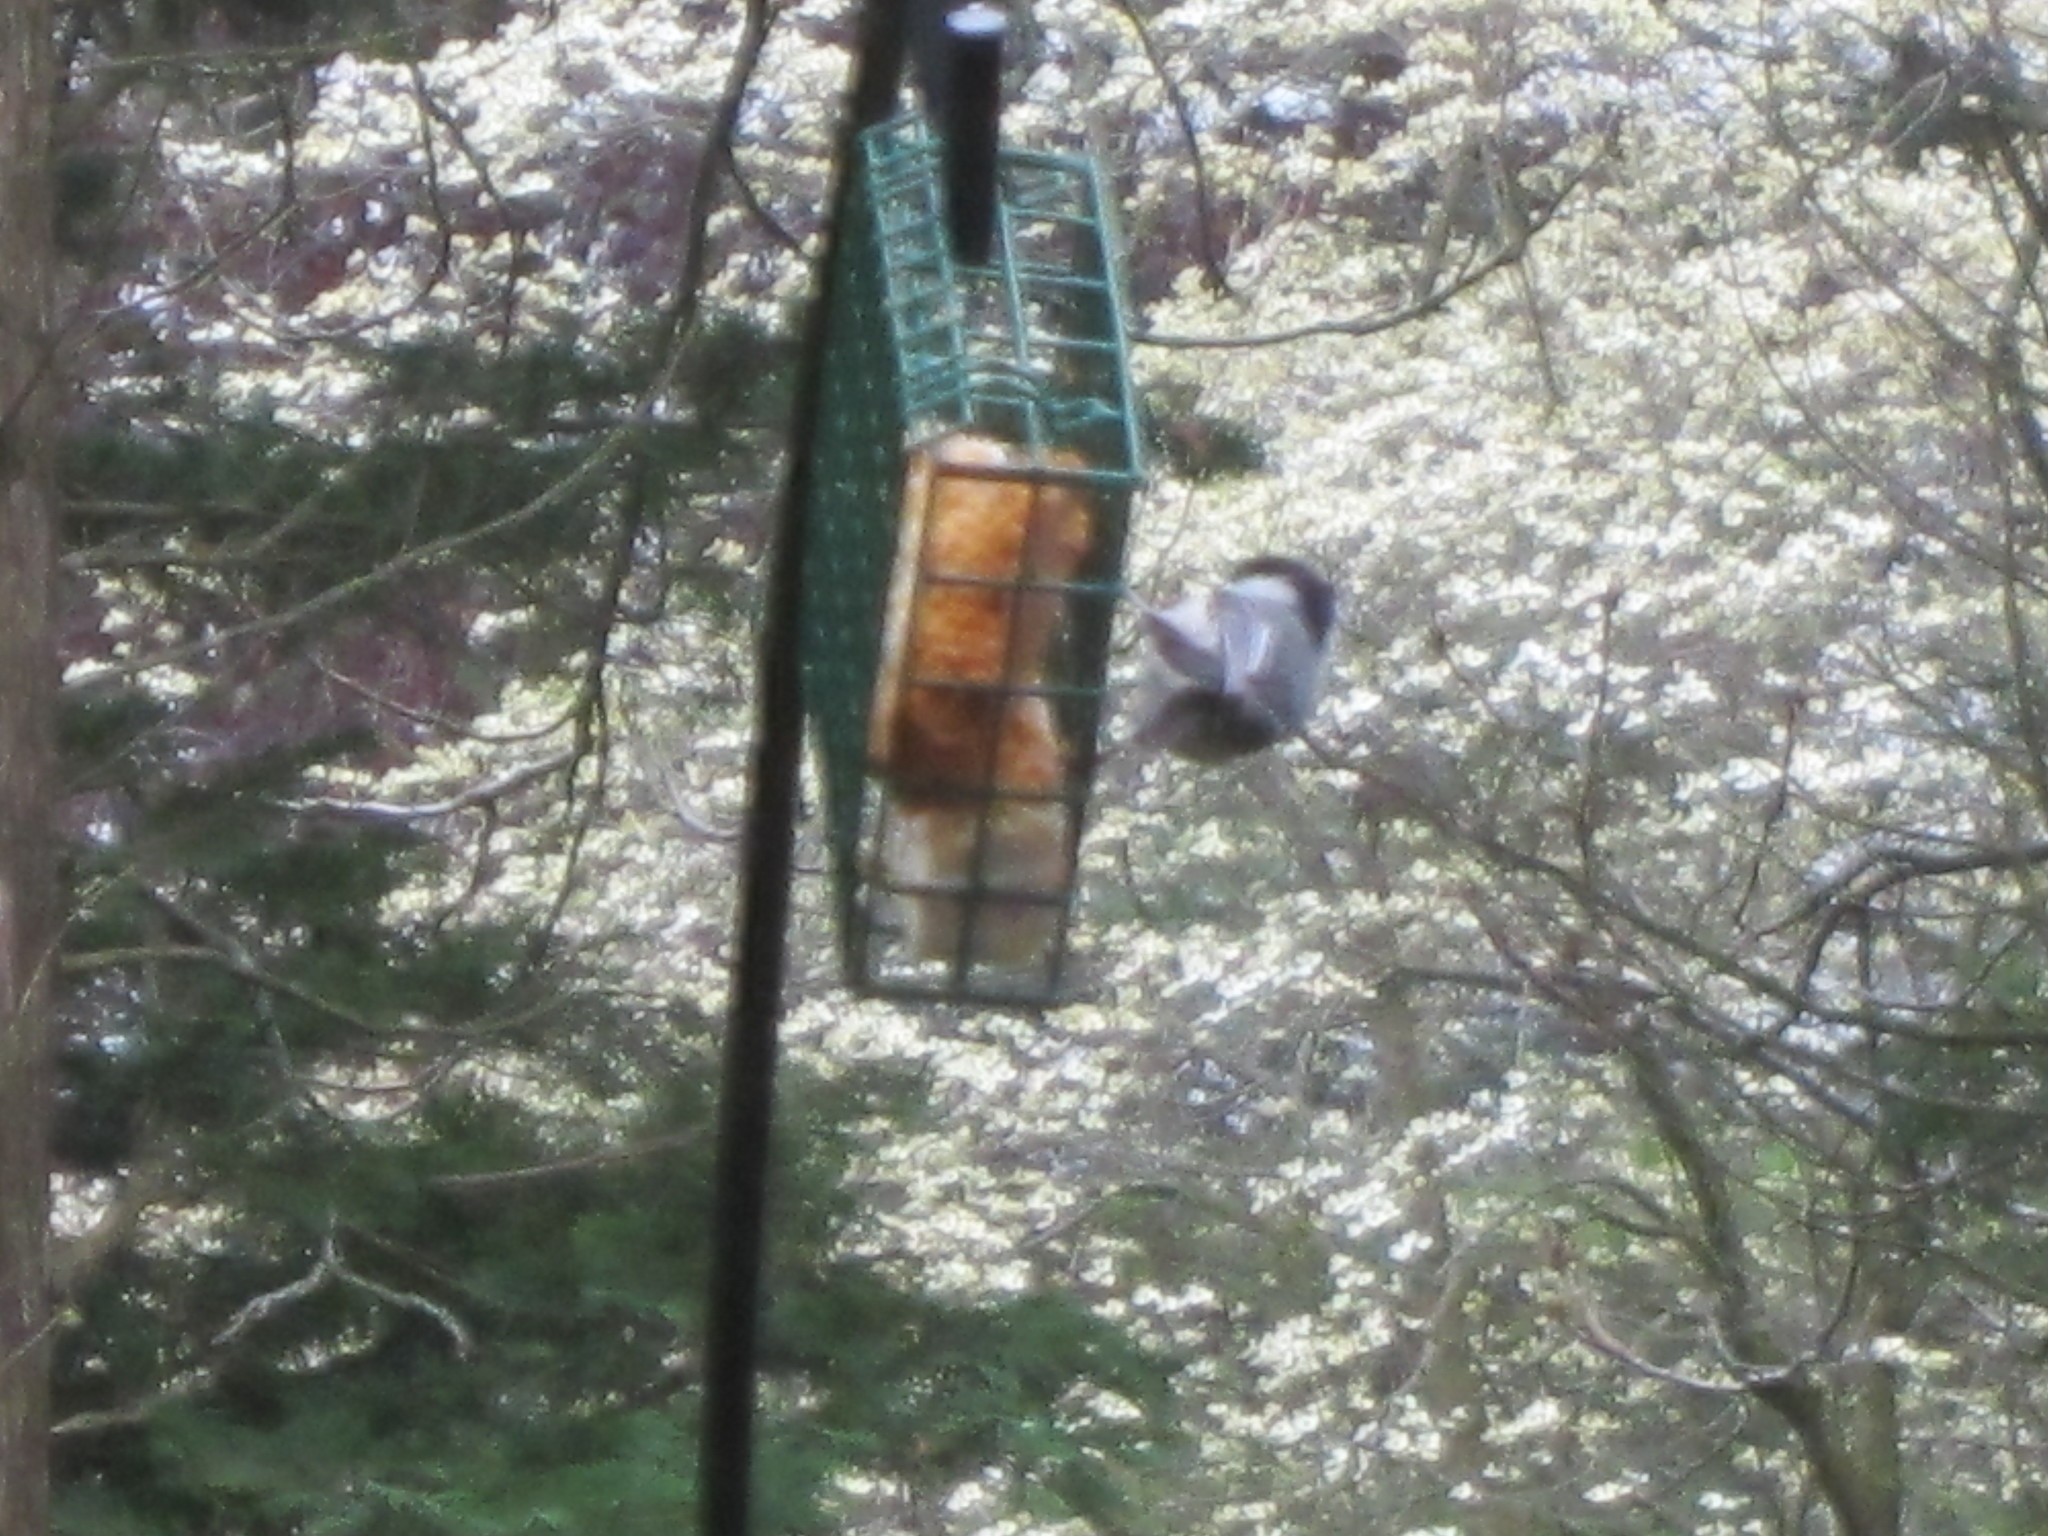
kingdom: Animalia
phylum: Chordata
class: Aves
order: Passeriformes
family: Paridae
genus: Poecile
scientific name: Poecile carolinensis
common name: Carolina chickadee
